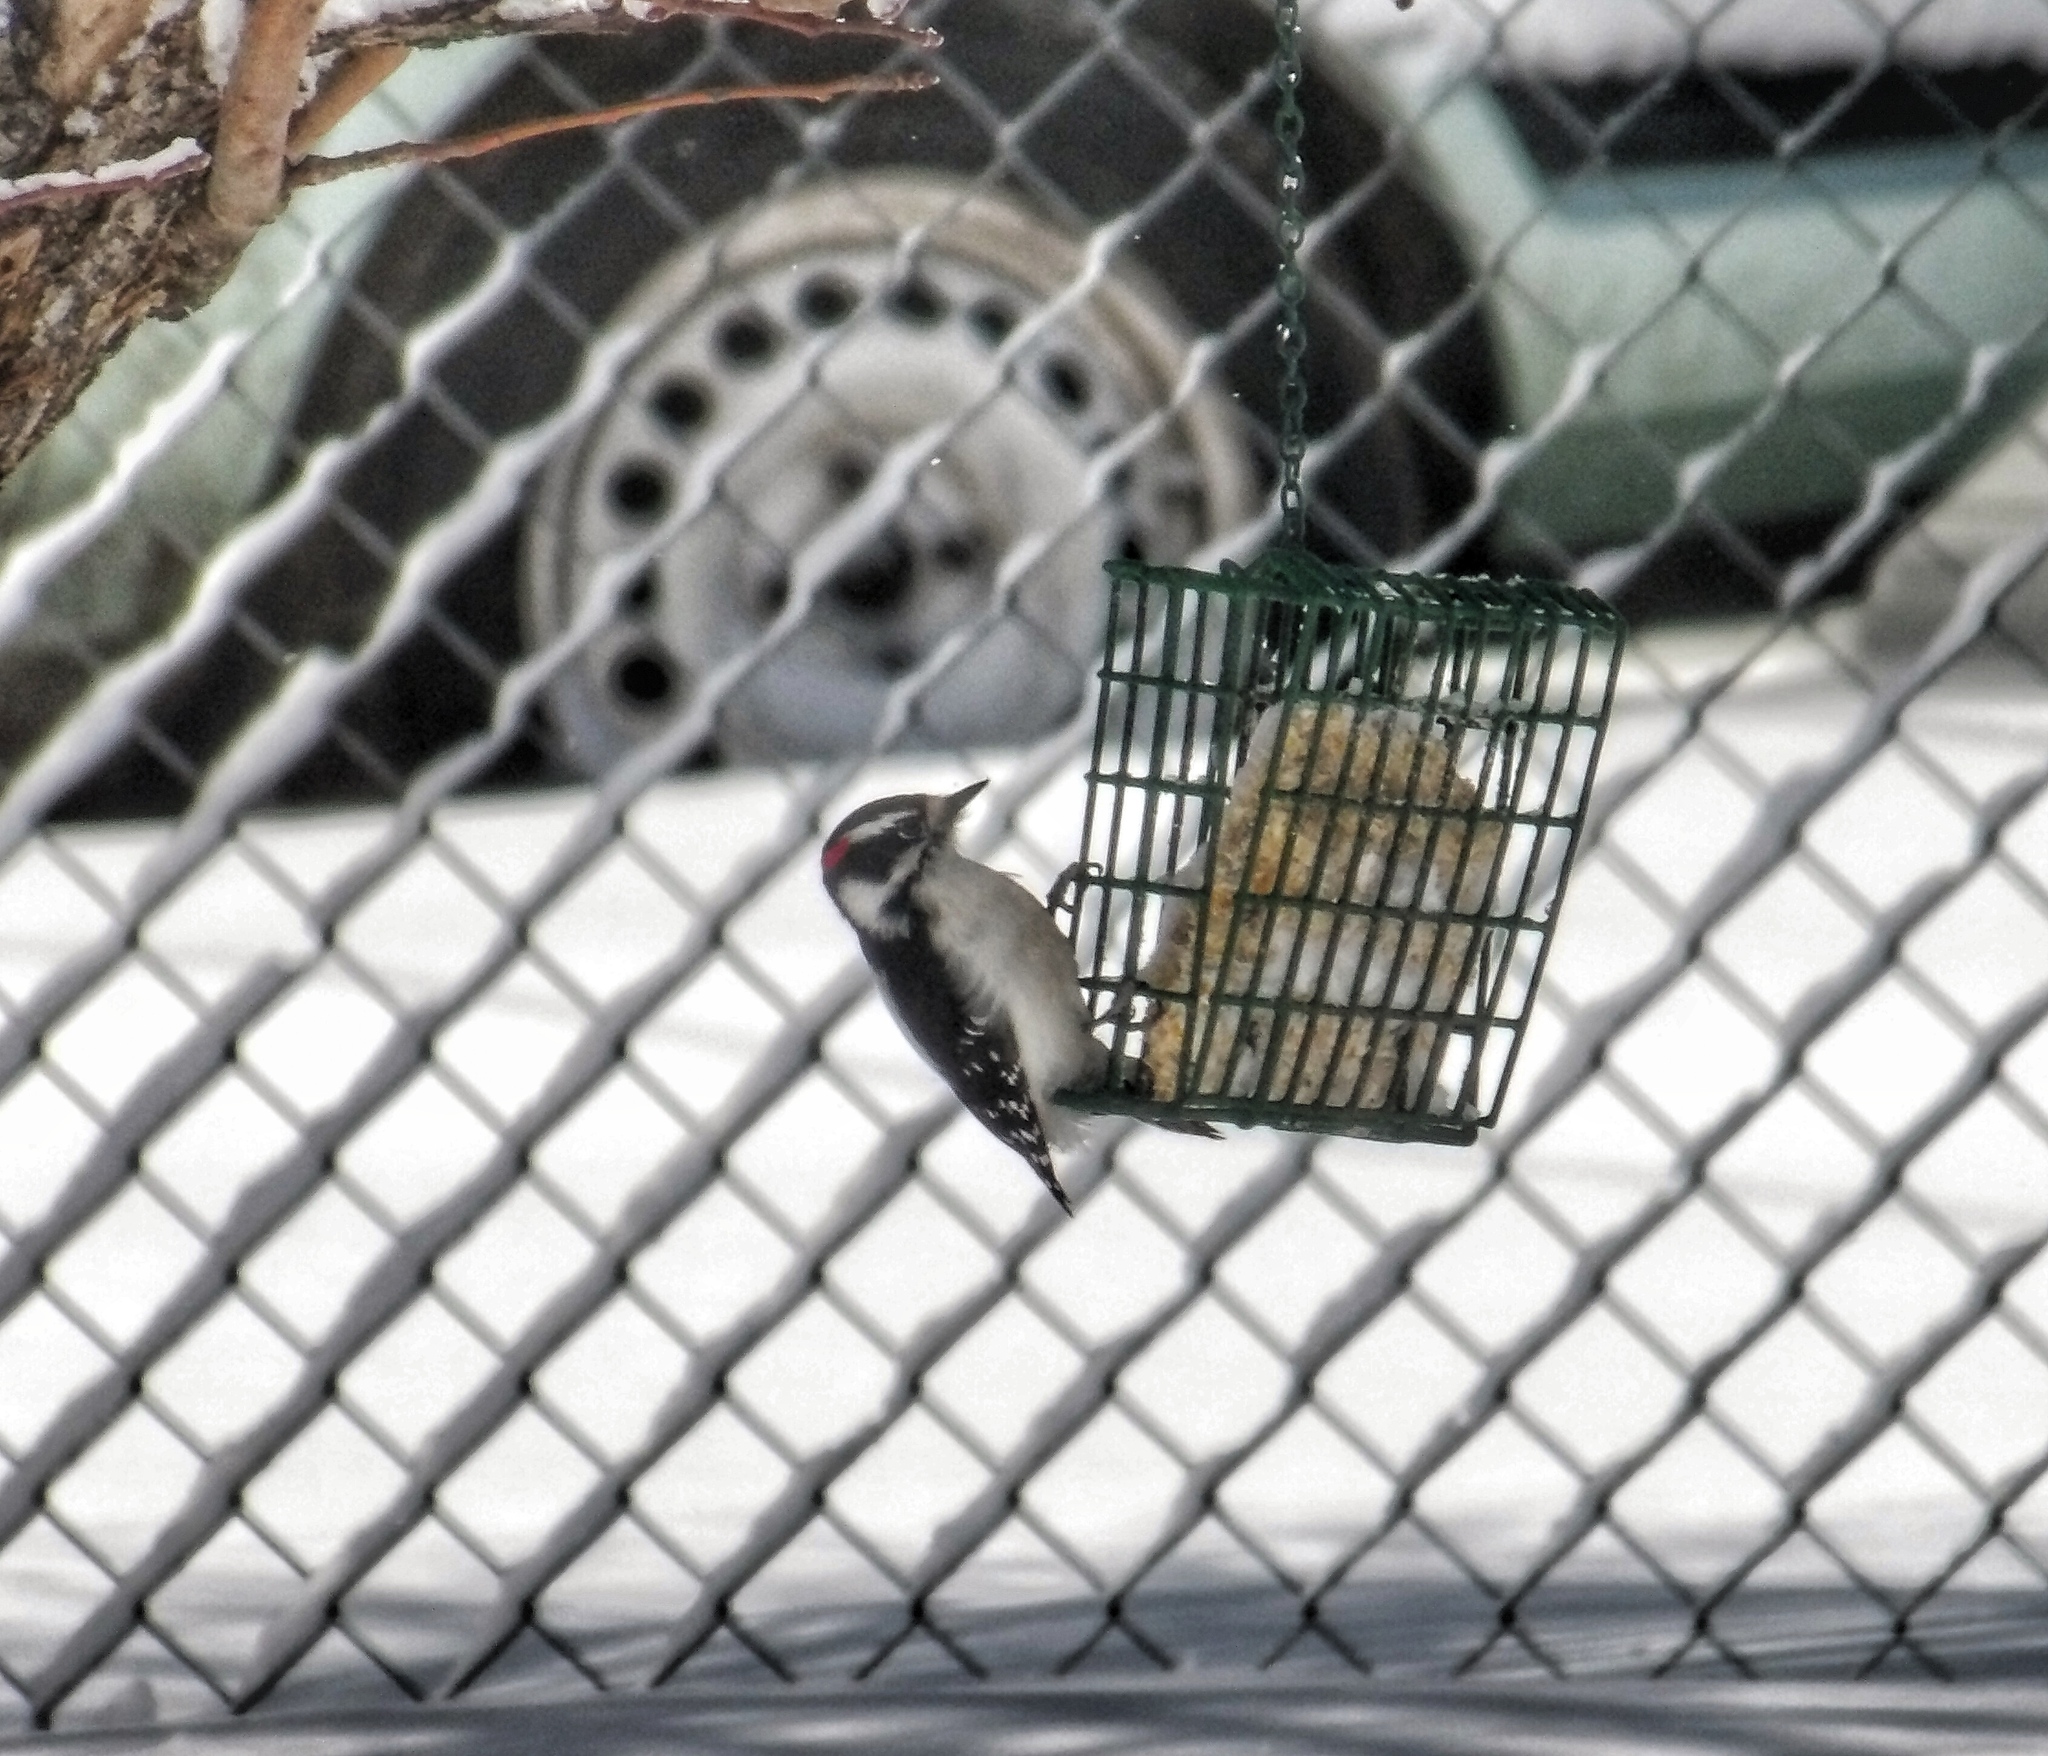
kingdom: Animalia
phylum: Chordata
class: Aves
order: Piciformes
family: Picidae
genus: Dryobates
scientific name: Dryobates pubescens
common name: Downy woodpecker
